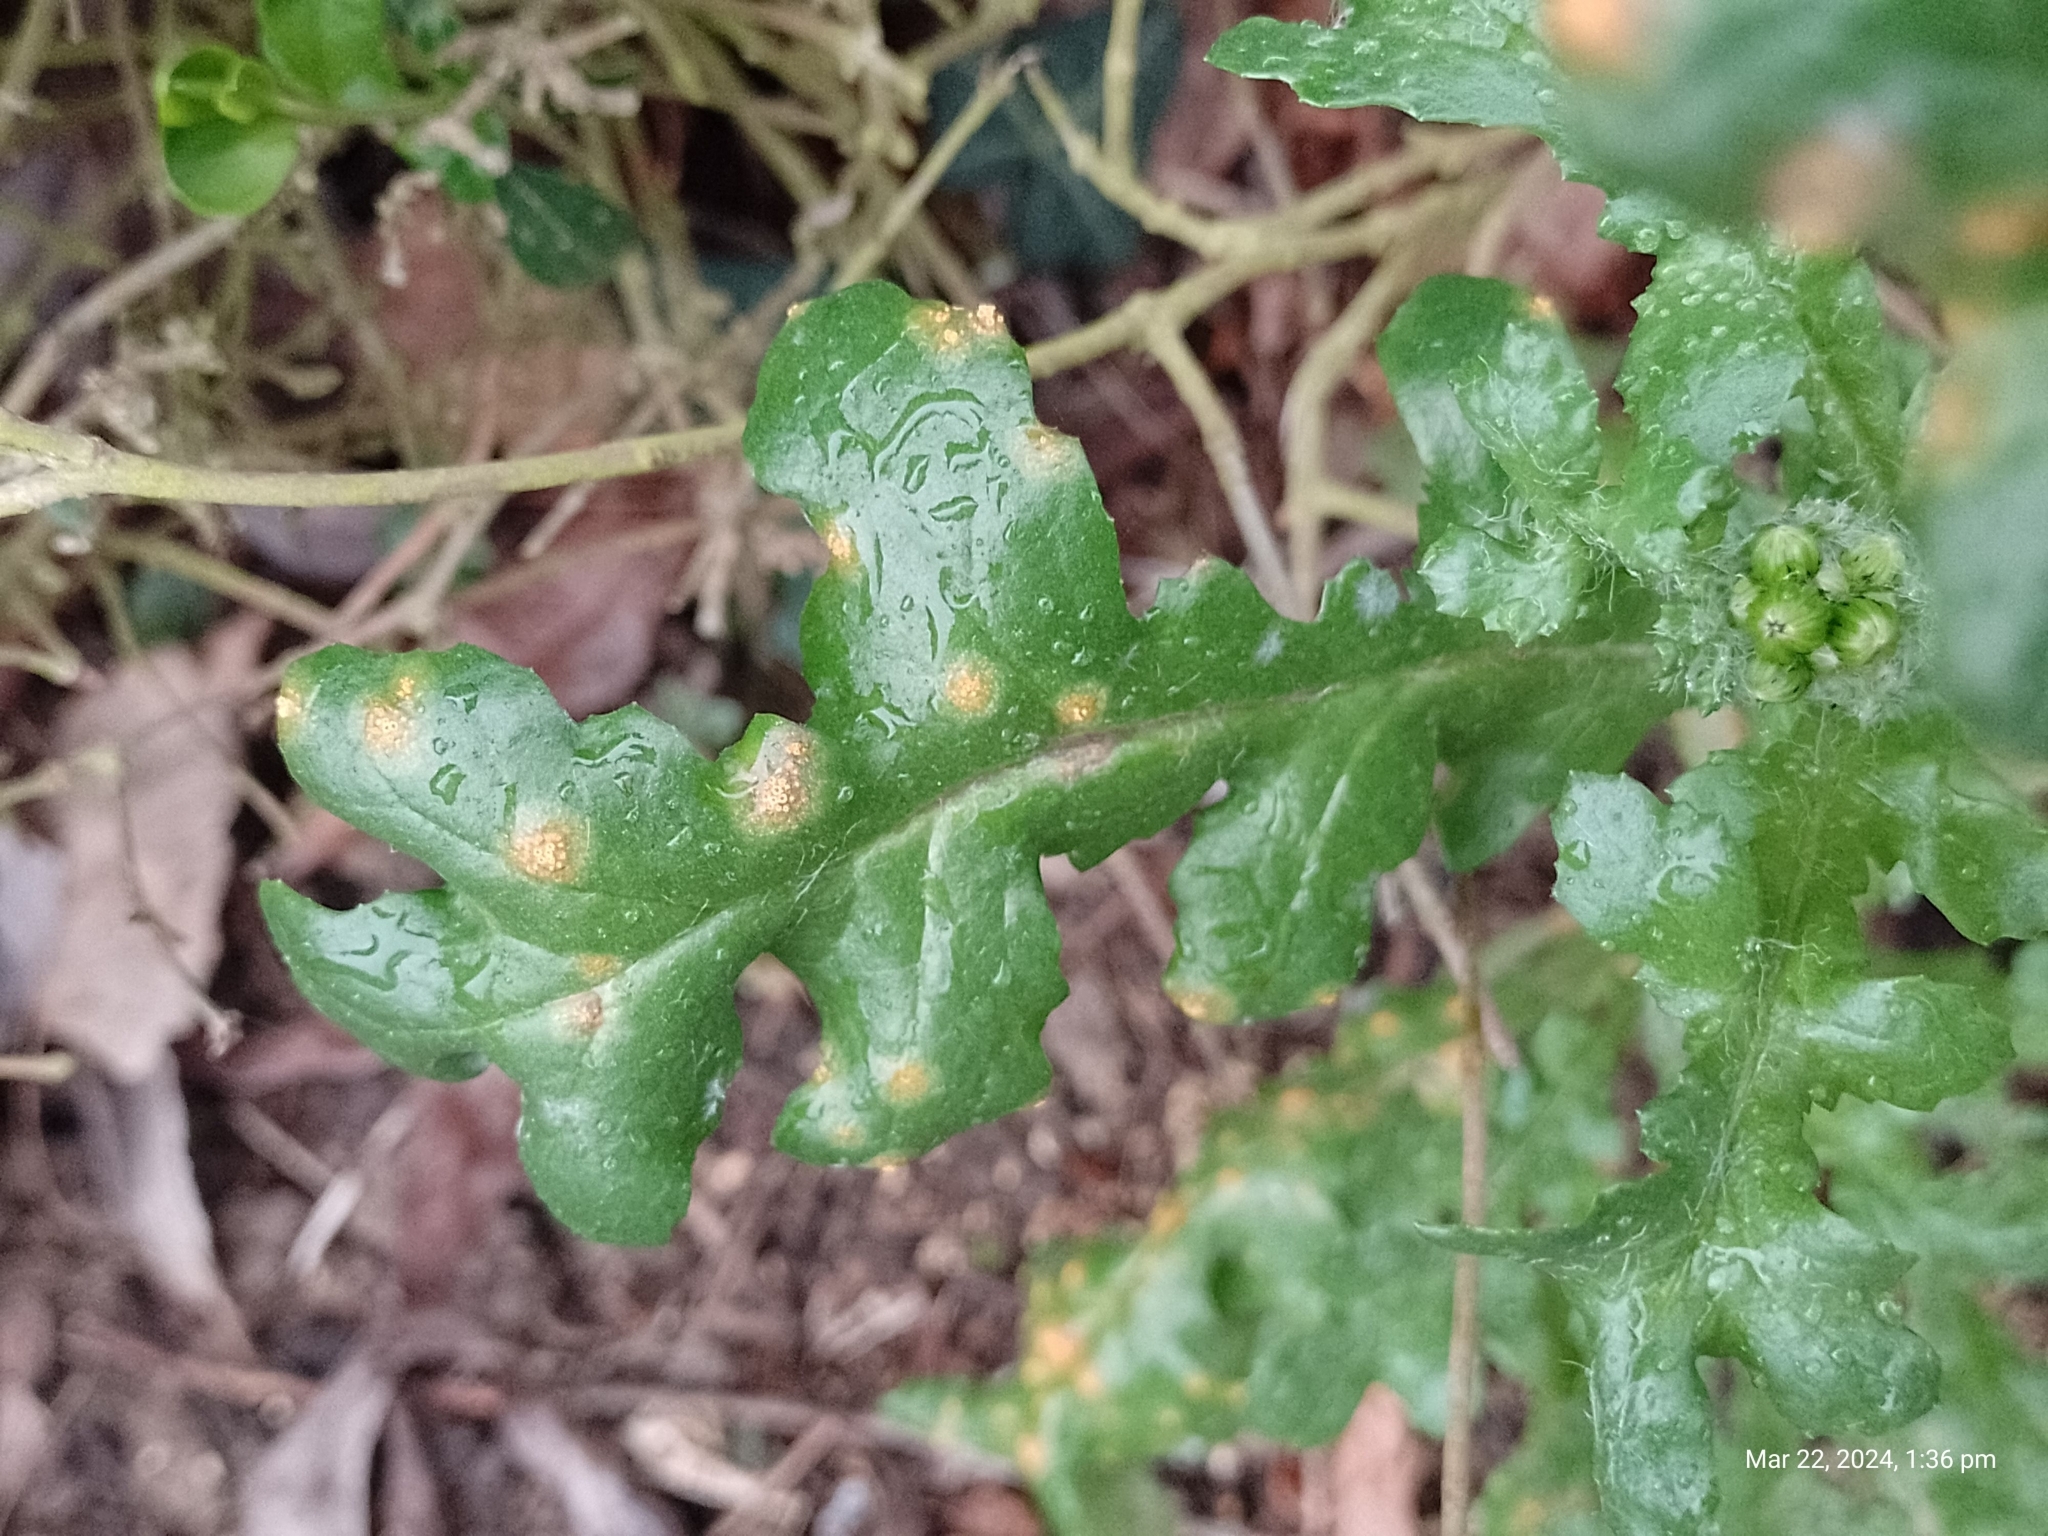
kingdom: Fungi
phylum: Basidiomycota
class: Pucciniomycetes
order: Pucciniales
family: Pucciniaceae
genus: Puccinia
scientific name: Puccinia lagenophorae
